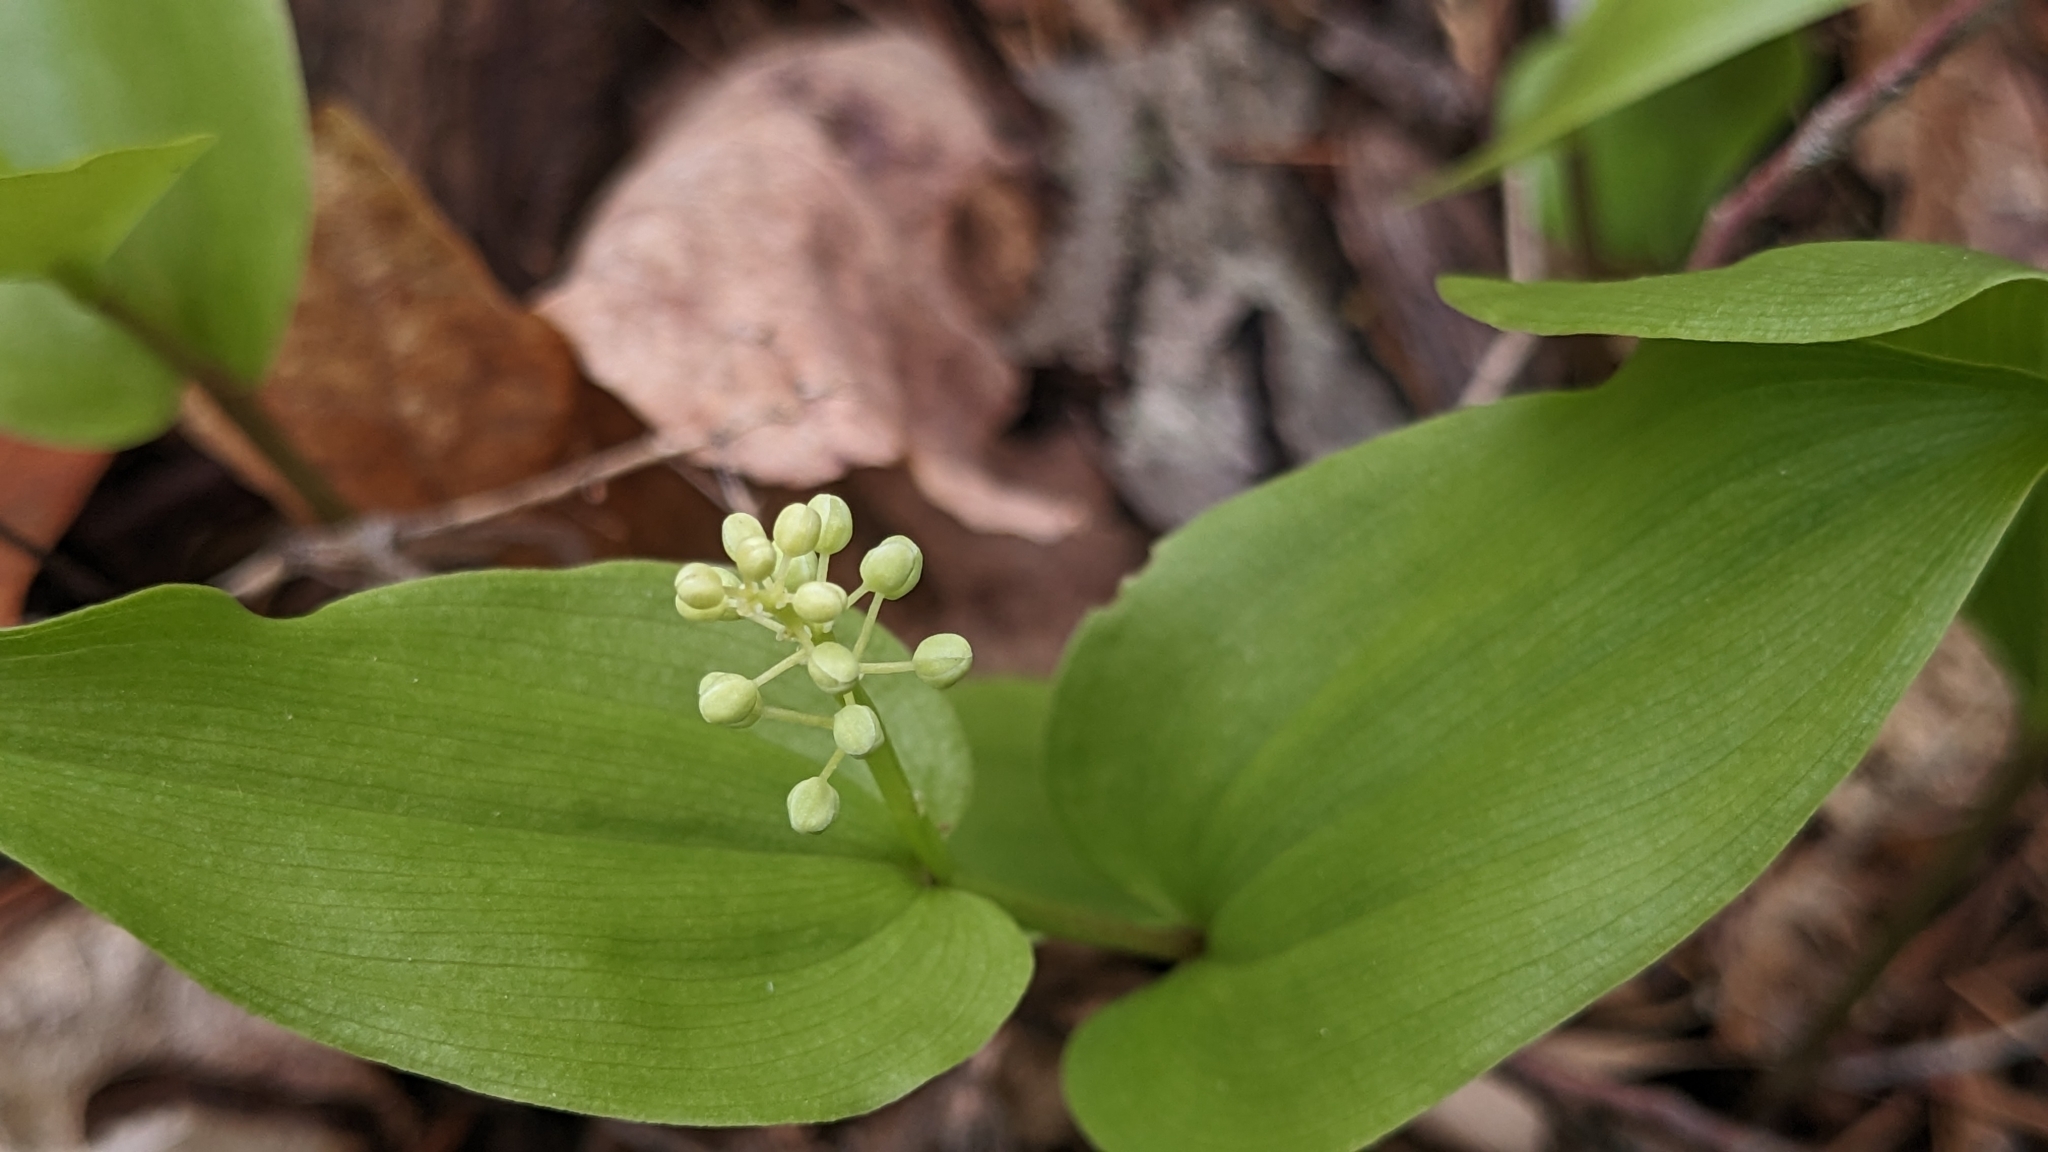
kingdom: Plantae
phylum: Tracheophyta
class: Liliopsida
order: Asparagales
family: Asparagaceae
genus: Maianthemum
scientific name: Maianthemum canadense
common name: False lily-of-the-valley
